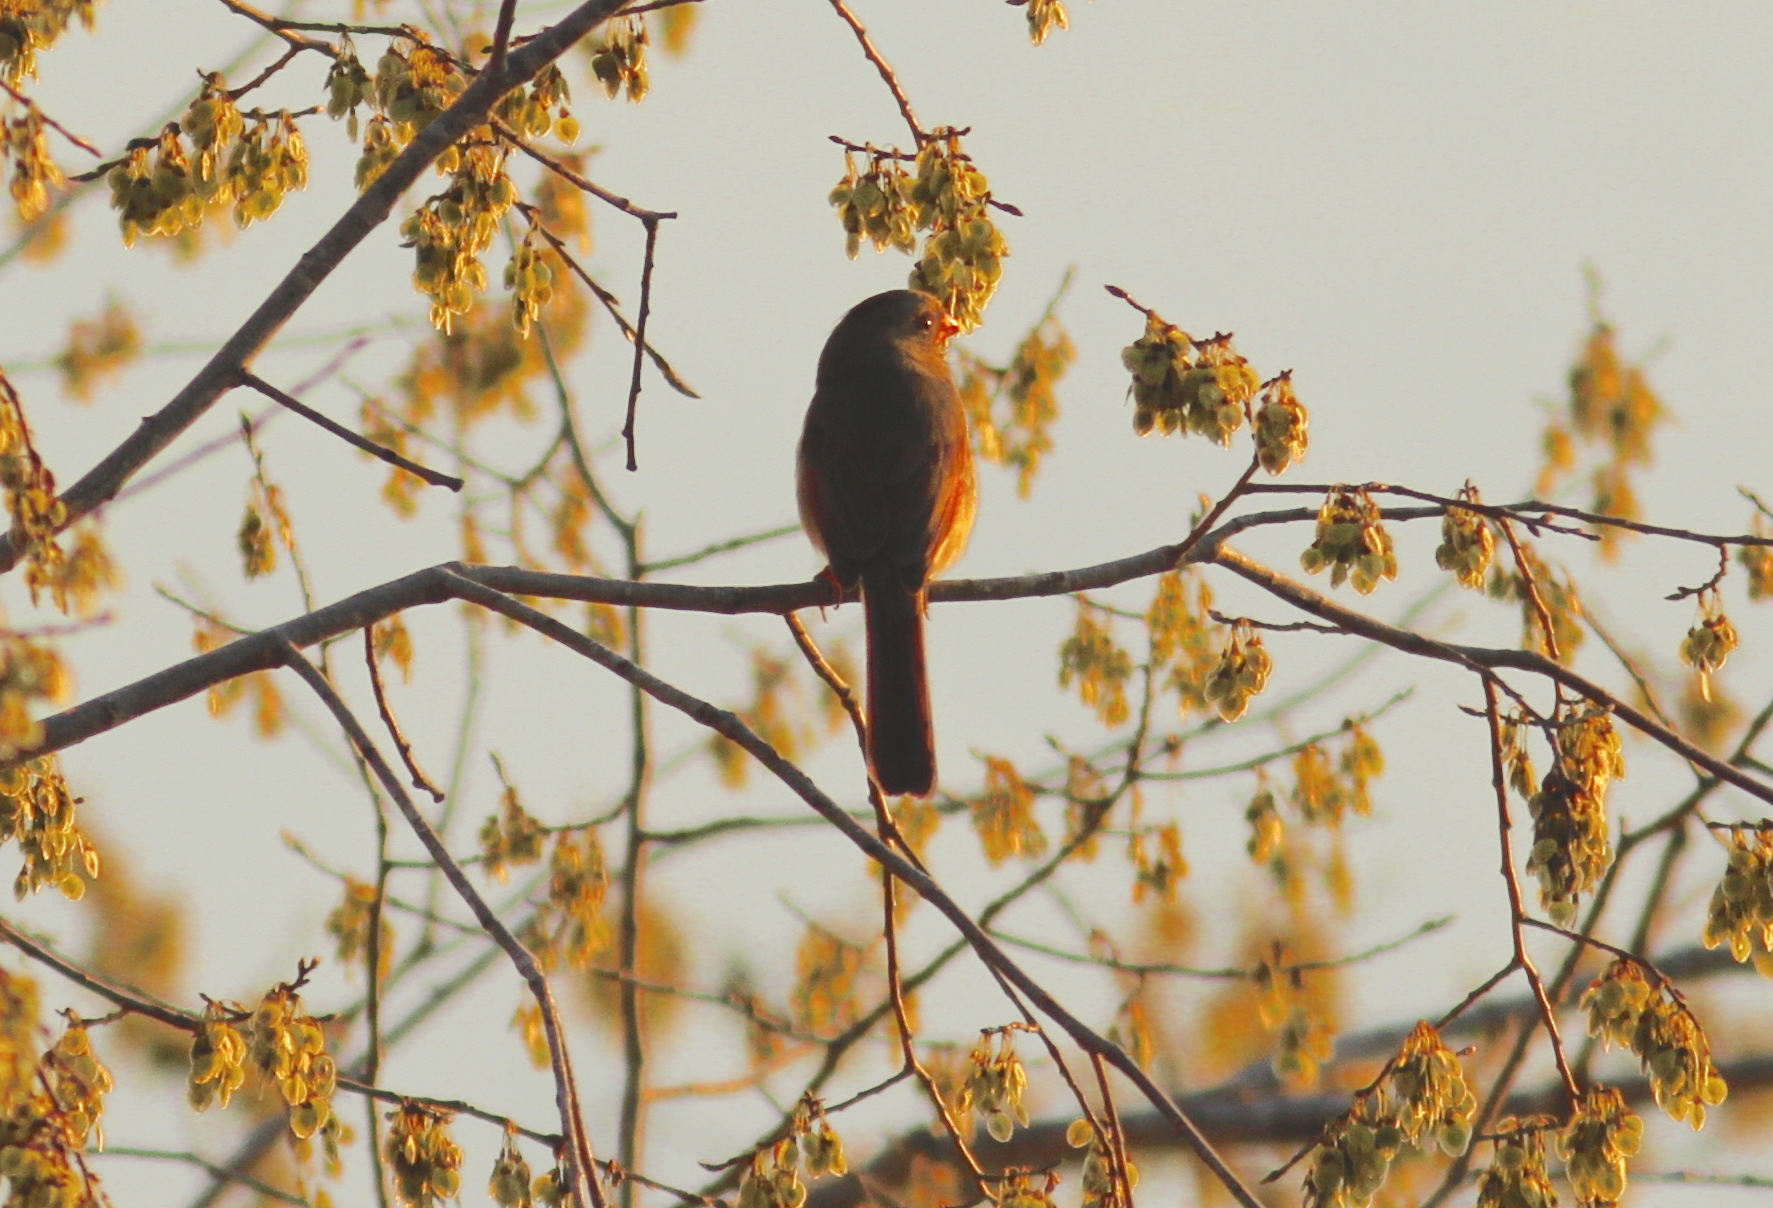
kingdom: Animalia
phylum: Chordata
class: Aves
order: Passeriformes
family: Cardinalidae
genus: Cardinalis
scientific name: Cardinalis cardinalis
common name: Northern cardinal
